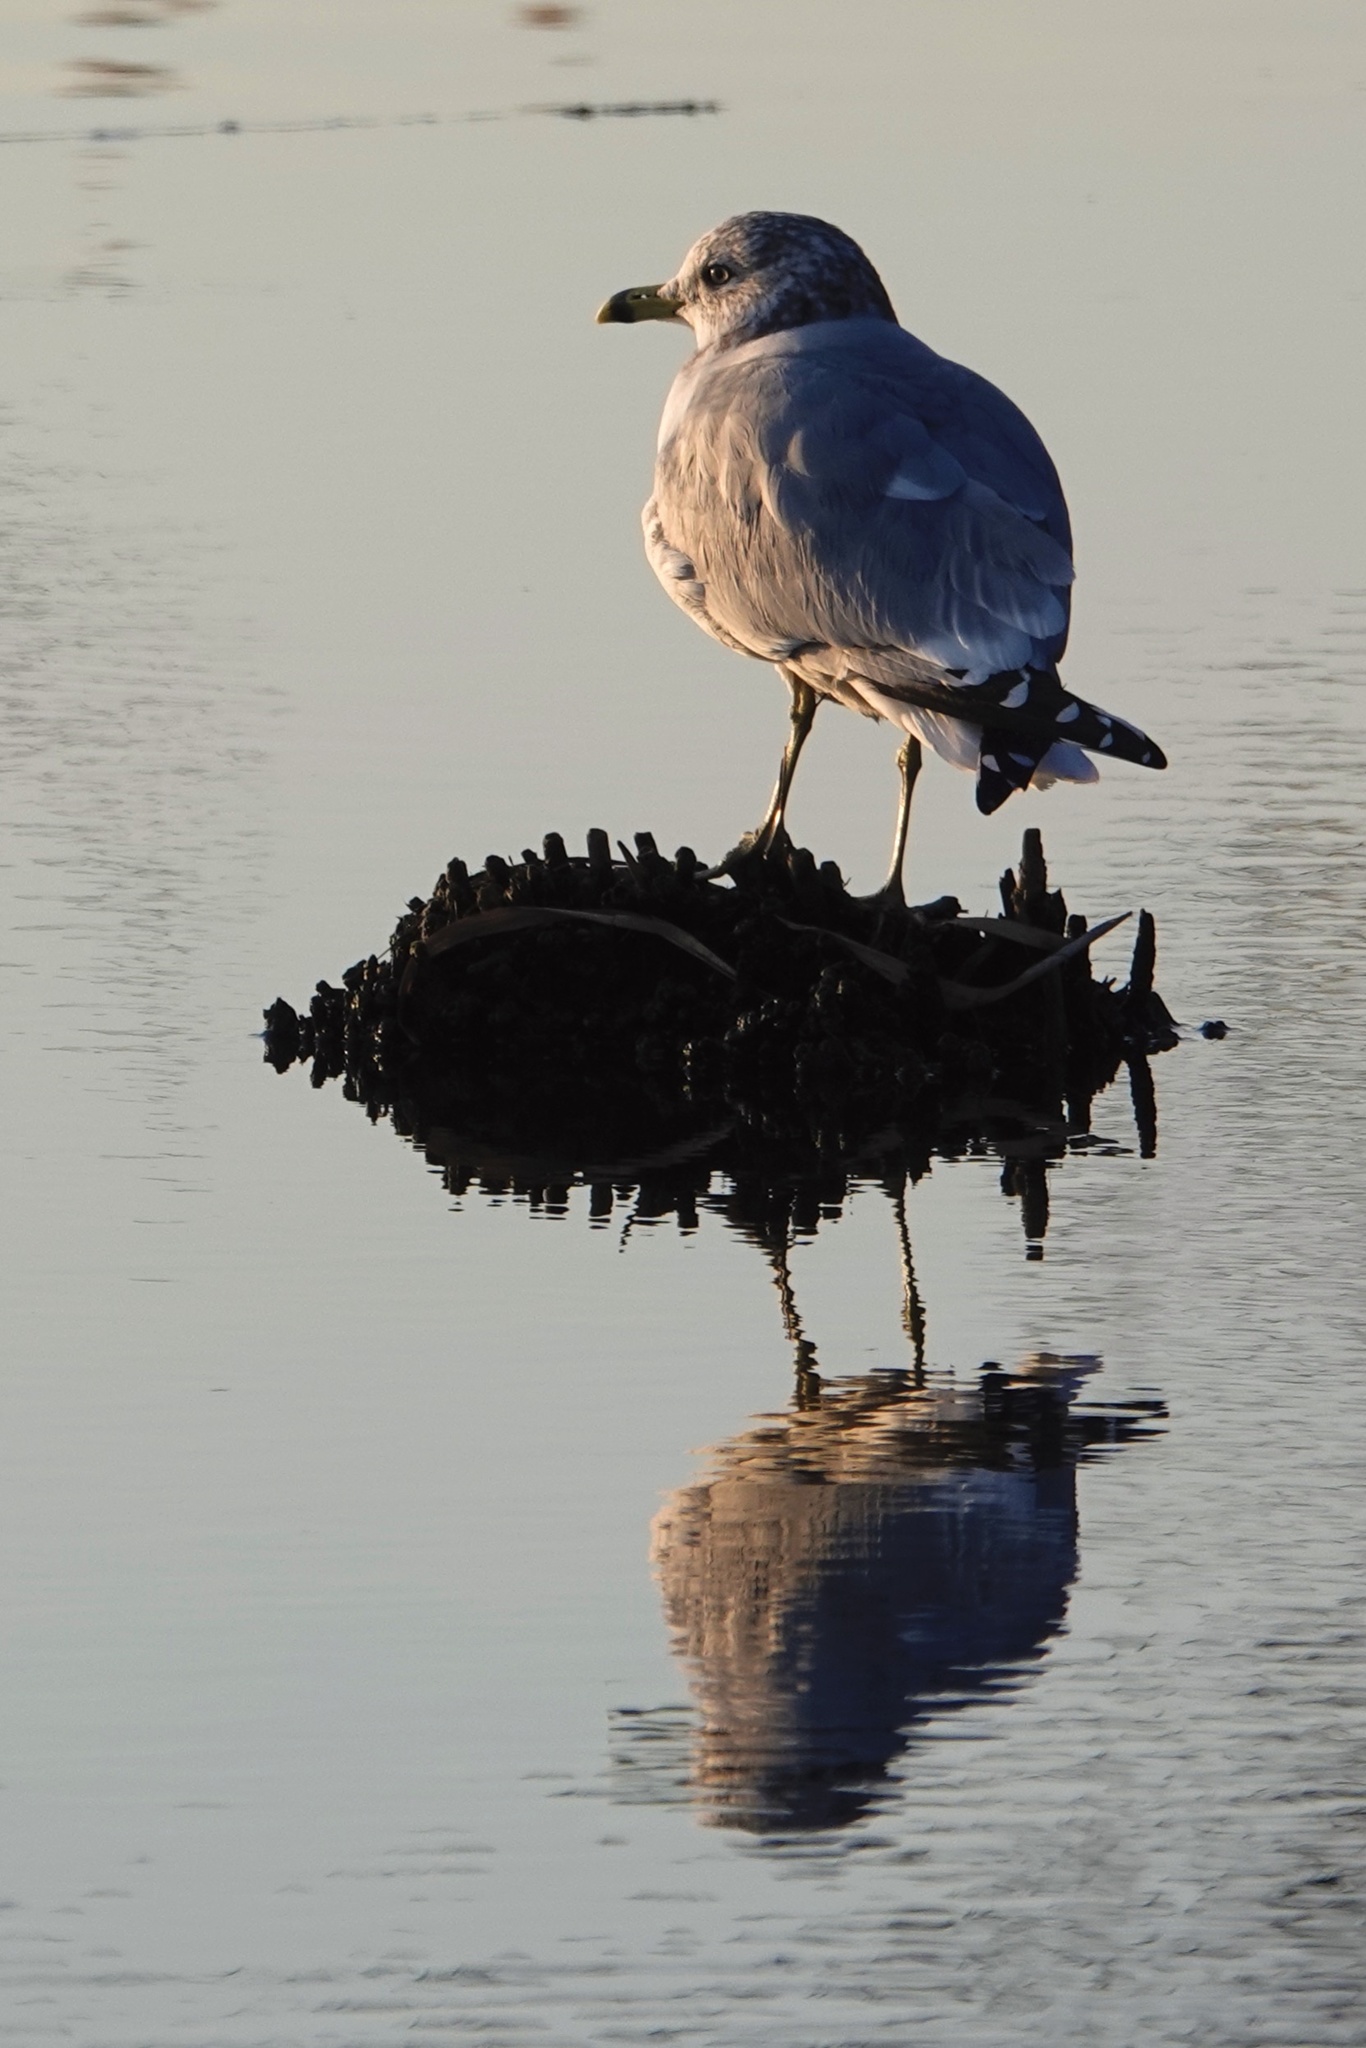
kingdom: Animalia
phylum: Chordata
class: Aves
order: Charadriiformes
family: Laridae
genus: Larus
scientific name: Larus delawarensis
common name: Ring-billed gull
